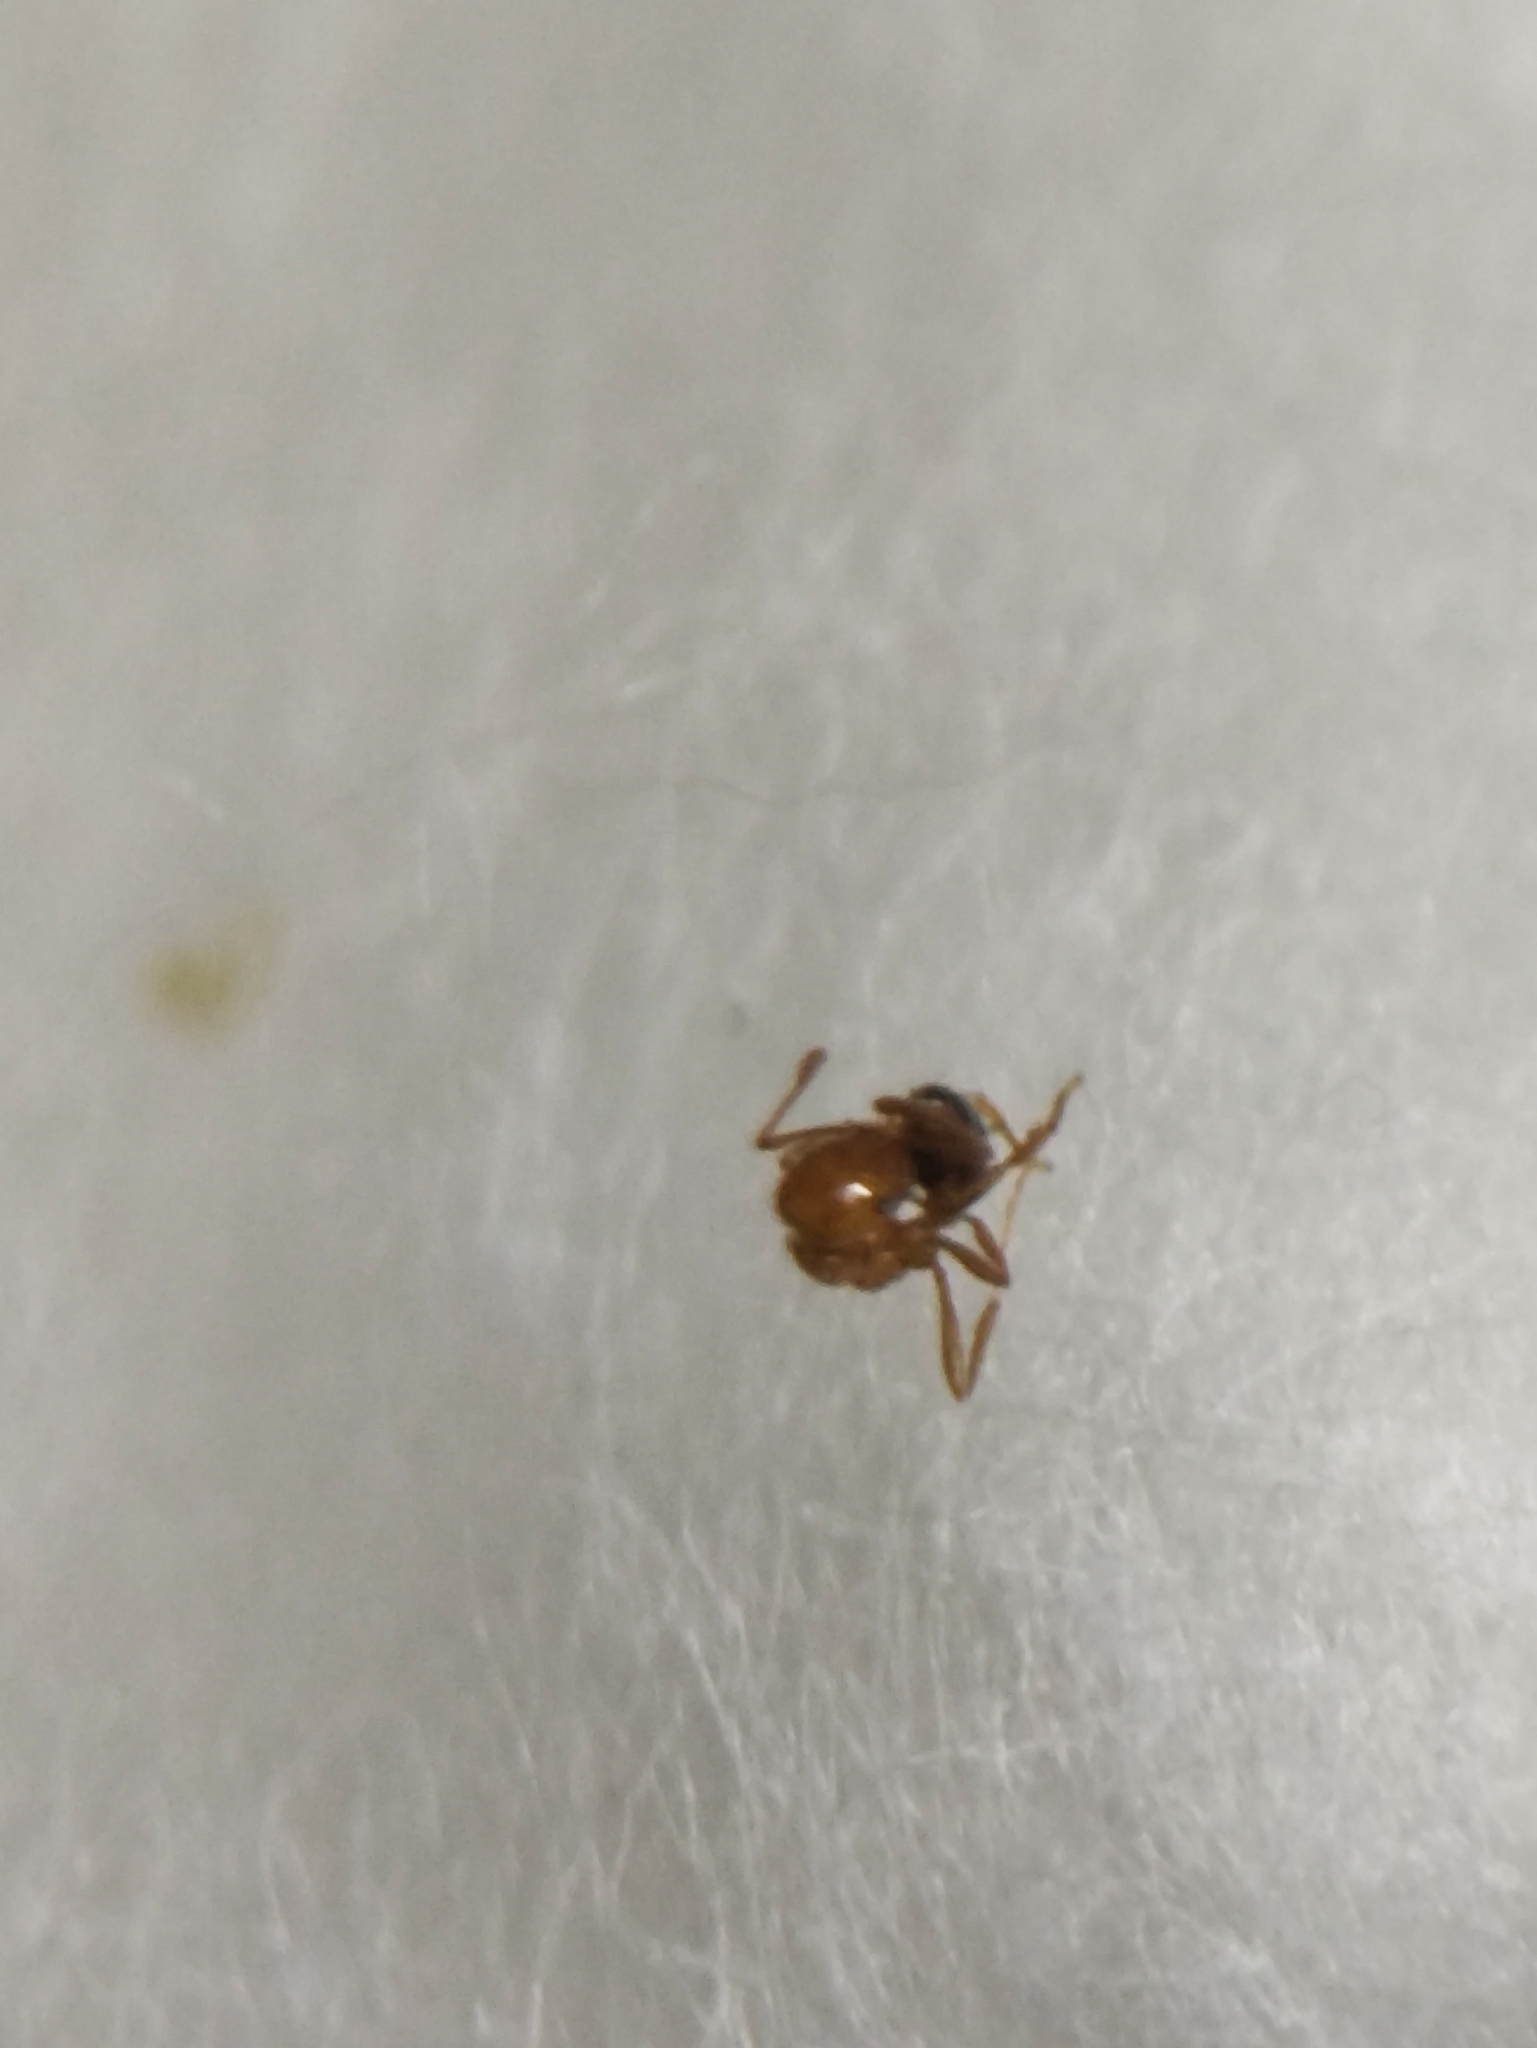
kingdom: Animalia
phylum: Arthropoda
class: Insecta
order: Hymenoptera
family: Formicidae
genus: Solenopsis
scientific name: Solenopsis geminata
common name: Tropical fire ant
